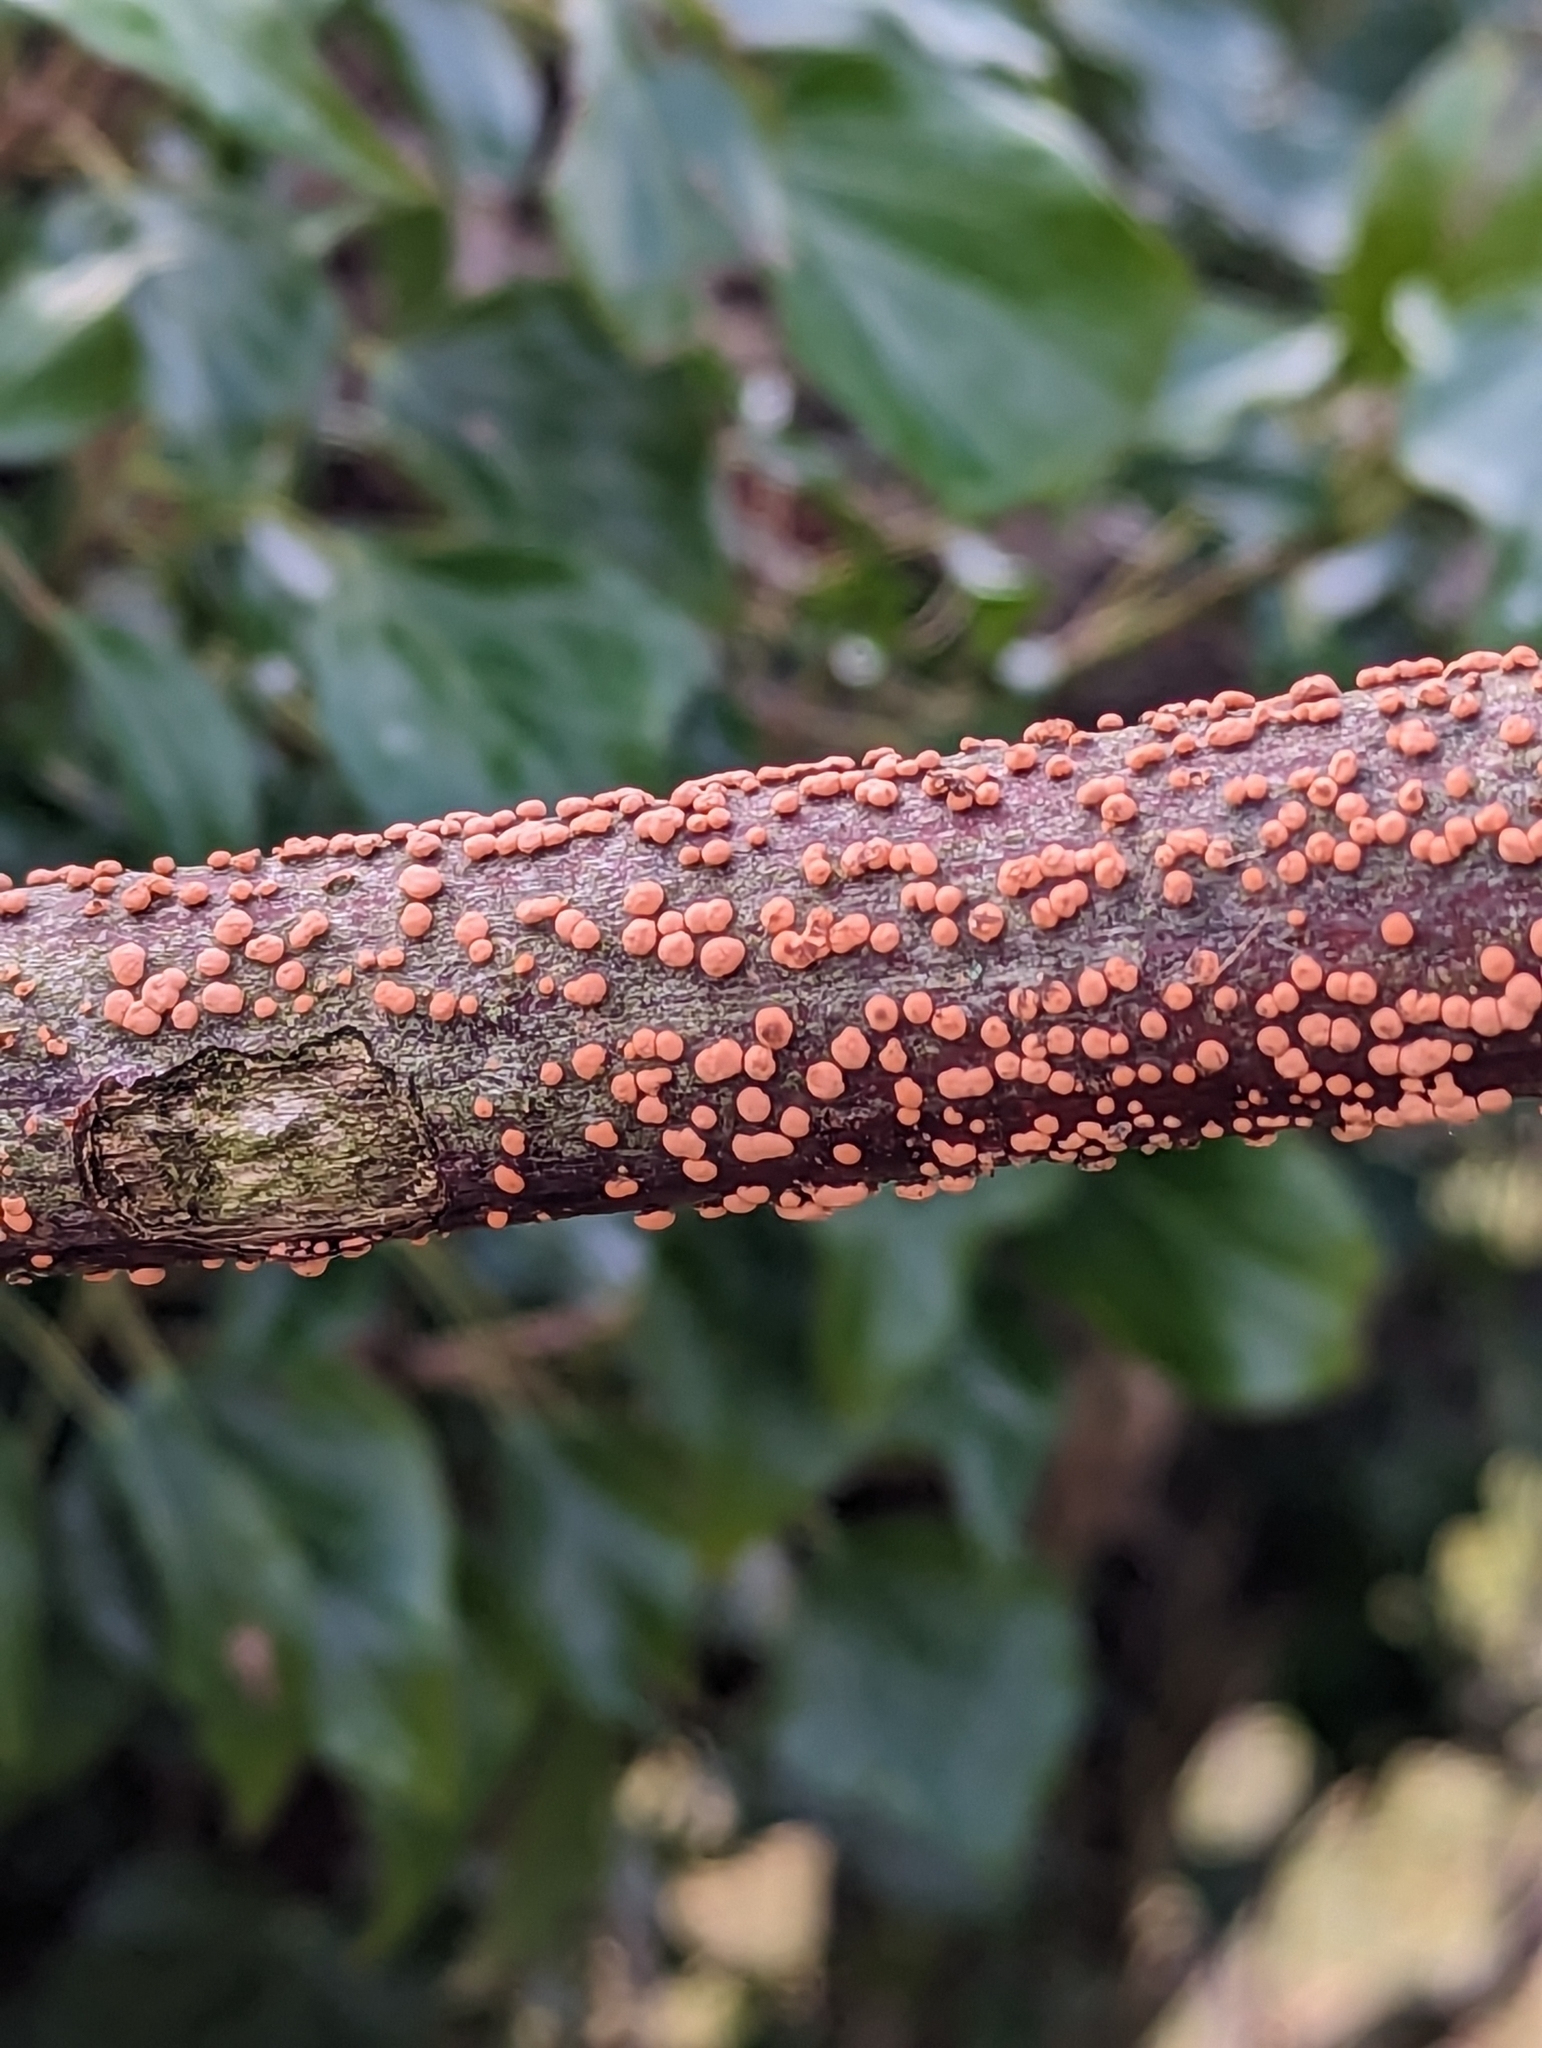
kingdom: Fungi
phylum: Ascomycota
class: Sordariomycetes
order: Hypocreales
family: Nectriaceae
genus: Nectria
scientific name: Nectria cinnabarina
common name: Coral spot
